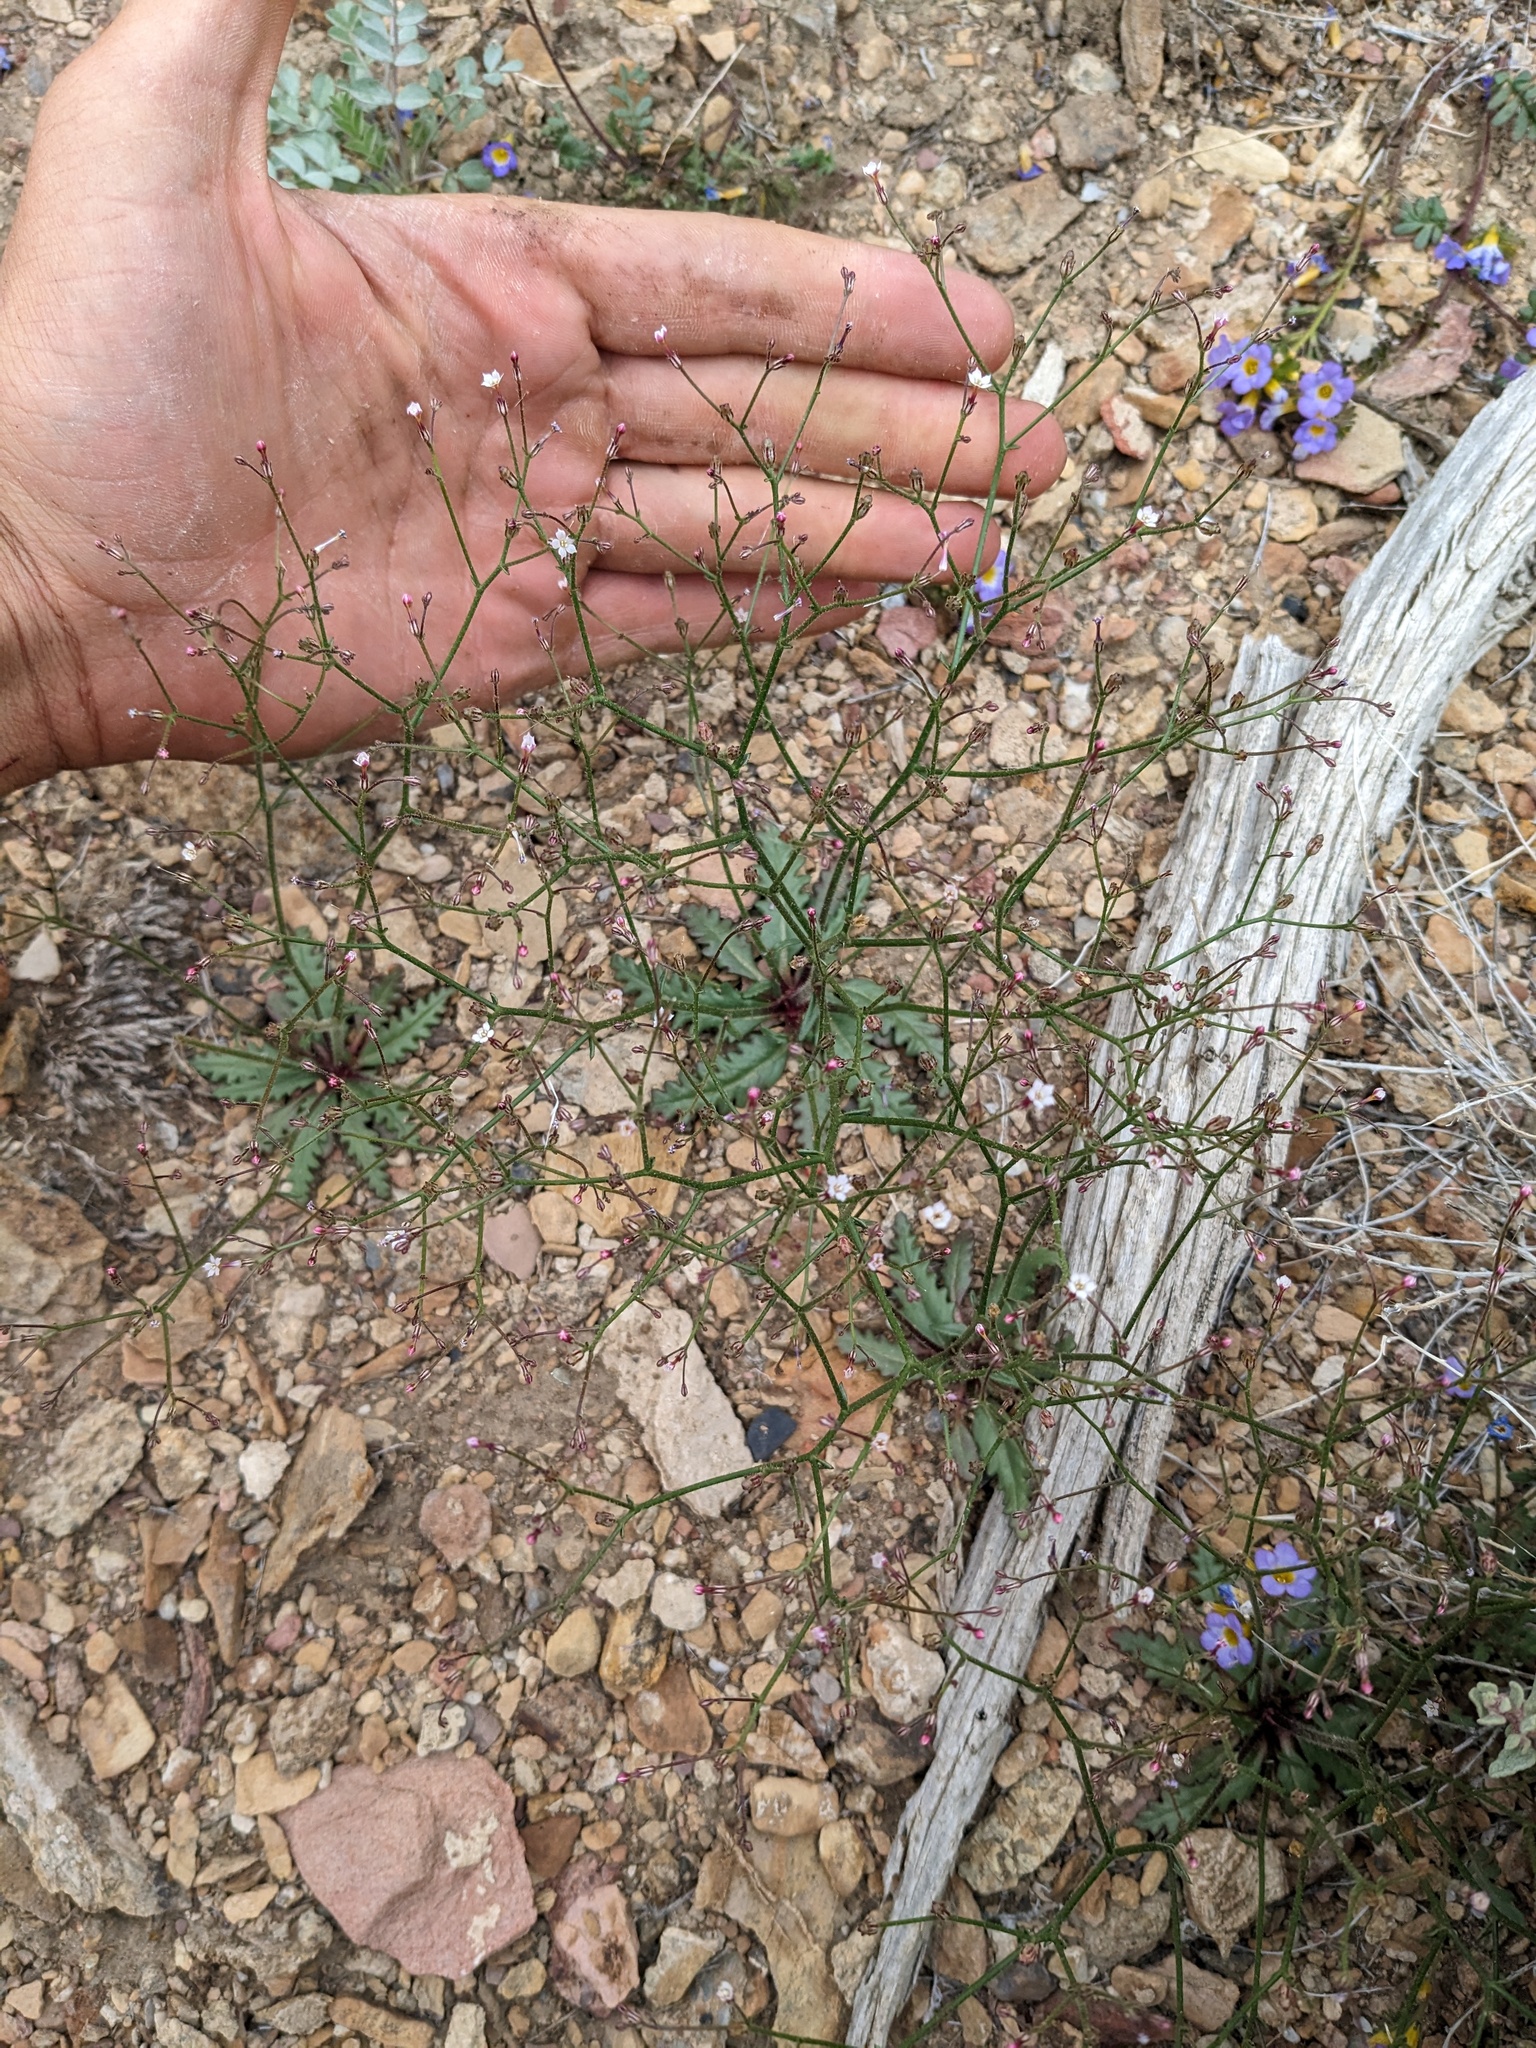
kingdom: Plantae
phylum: Tracheophyta
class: Magnoliopsida
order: Ericales
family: Polemoniaceae
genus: Aliciella
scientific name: Aliciella leptomeria
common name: Sand gilia
